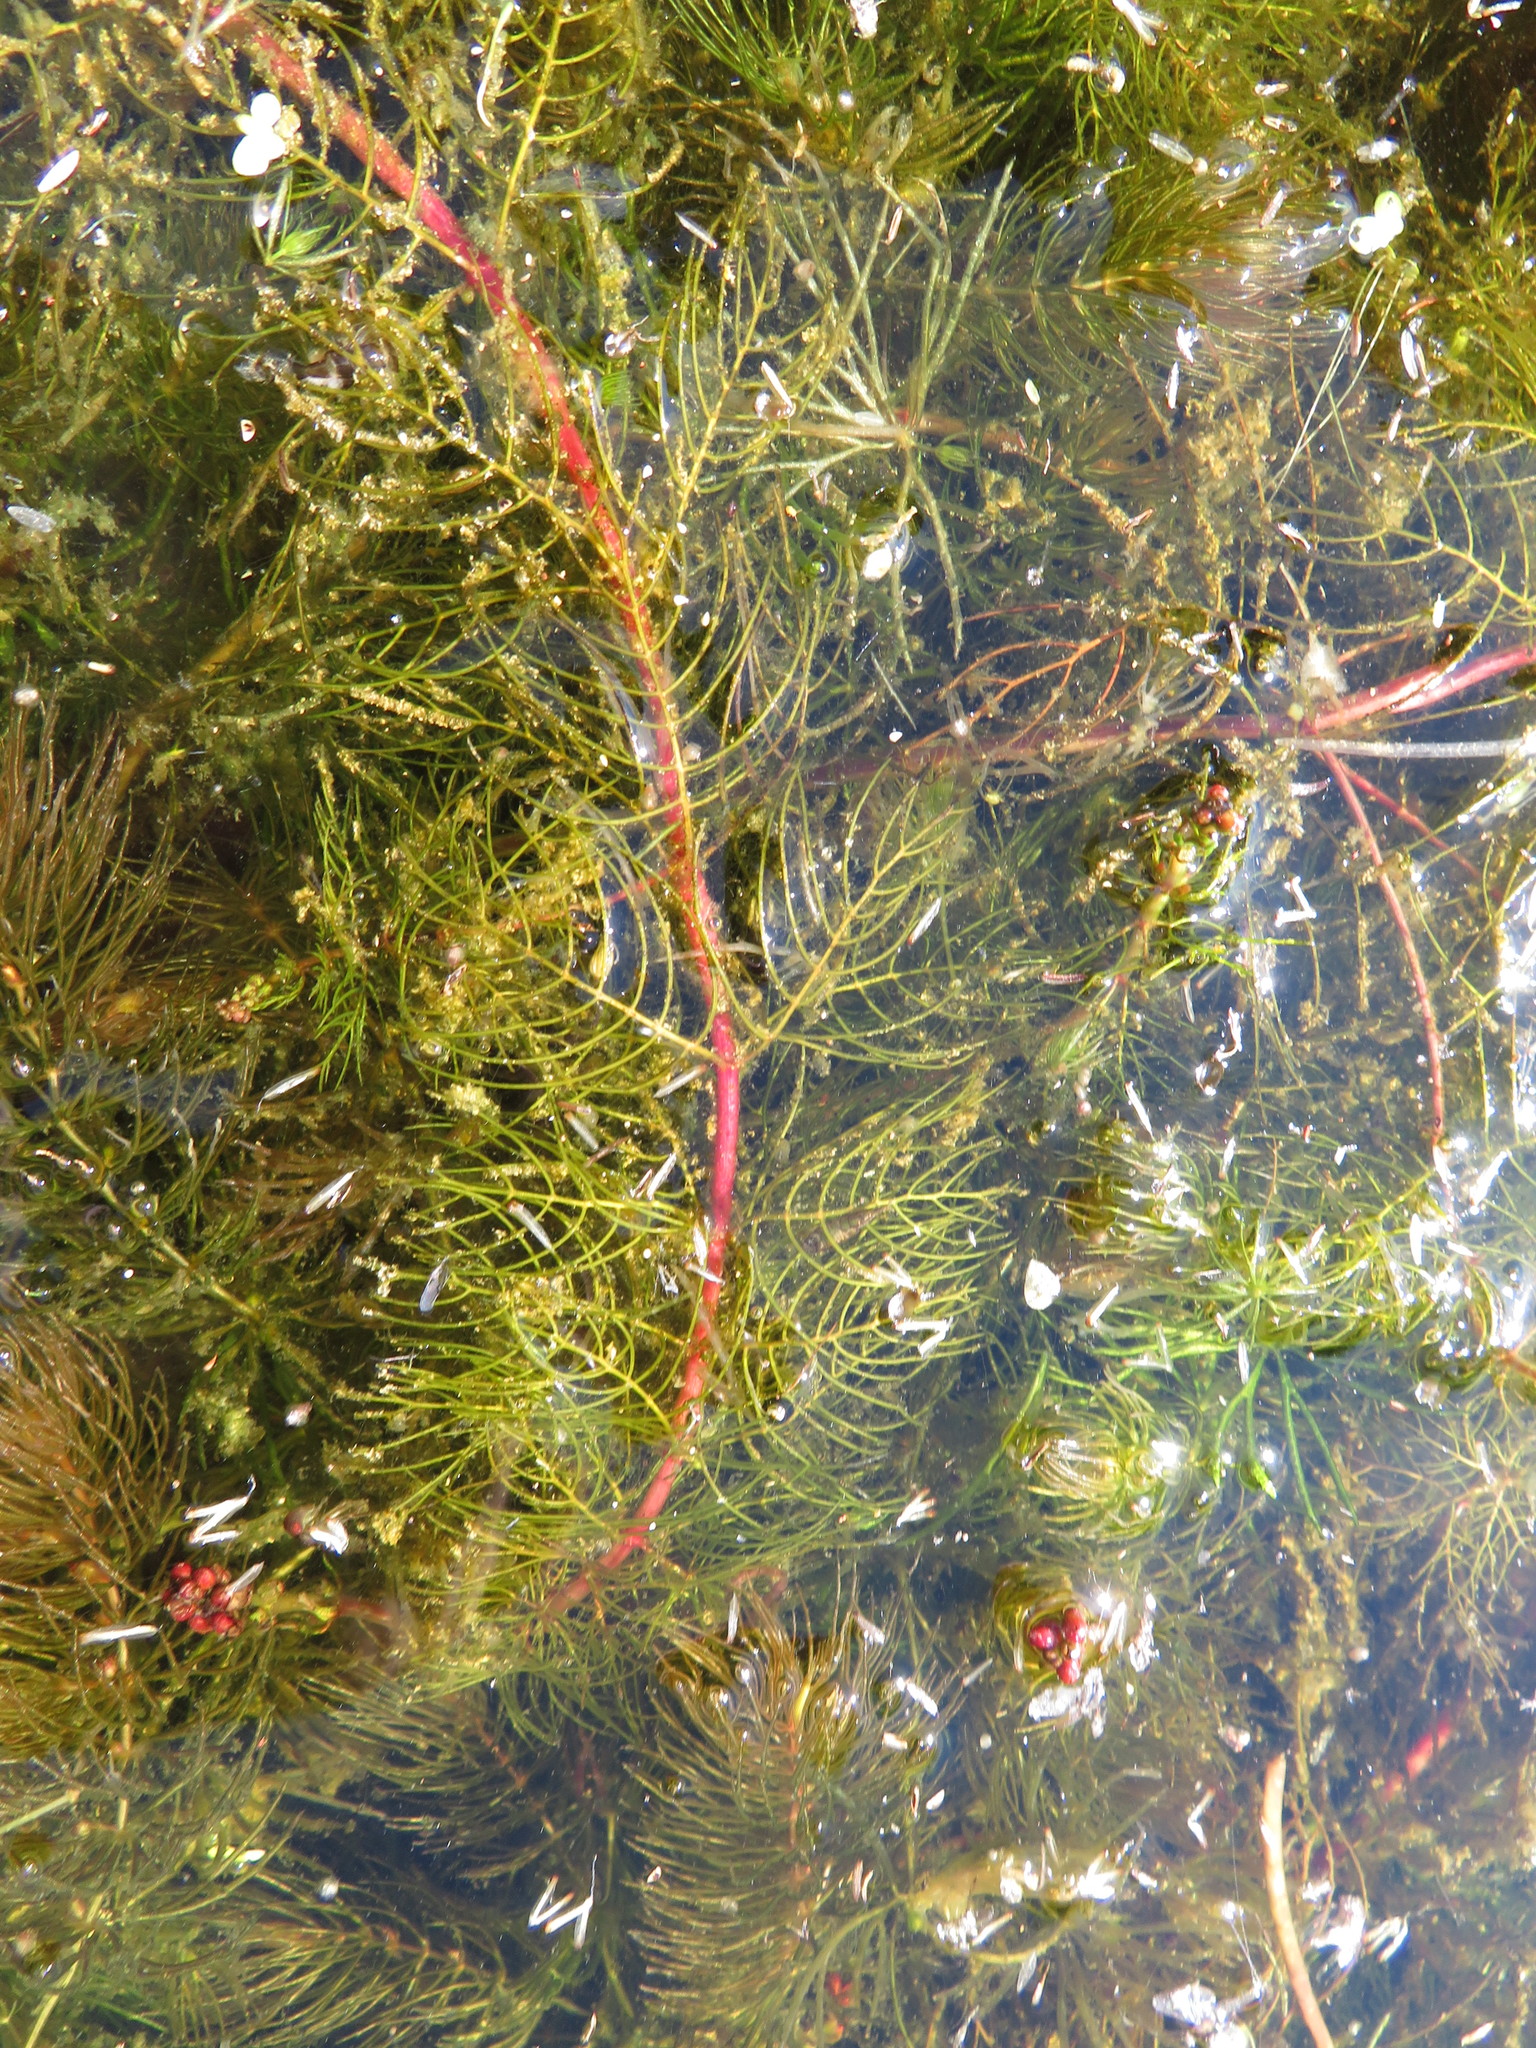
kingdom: Plantae
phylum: Tracheophyta
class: Magnoliopsida
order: Saxifragales
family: Haloragaceae
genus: Myriophyllum
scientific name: Myriophyllum sibiricum
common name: Siberian water-milfoil
